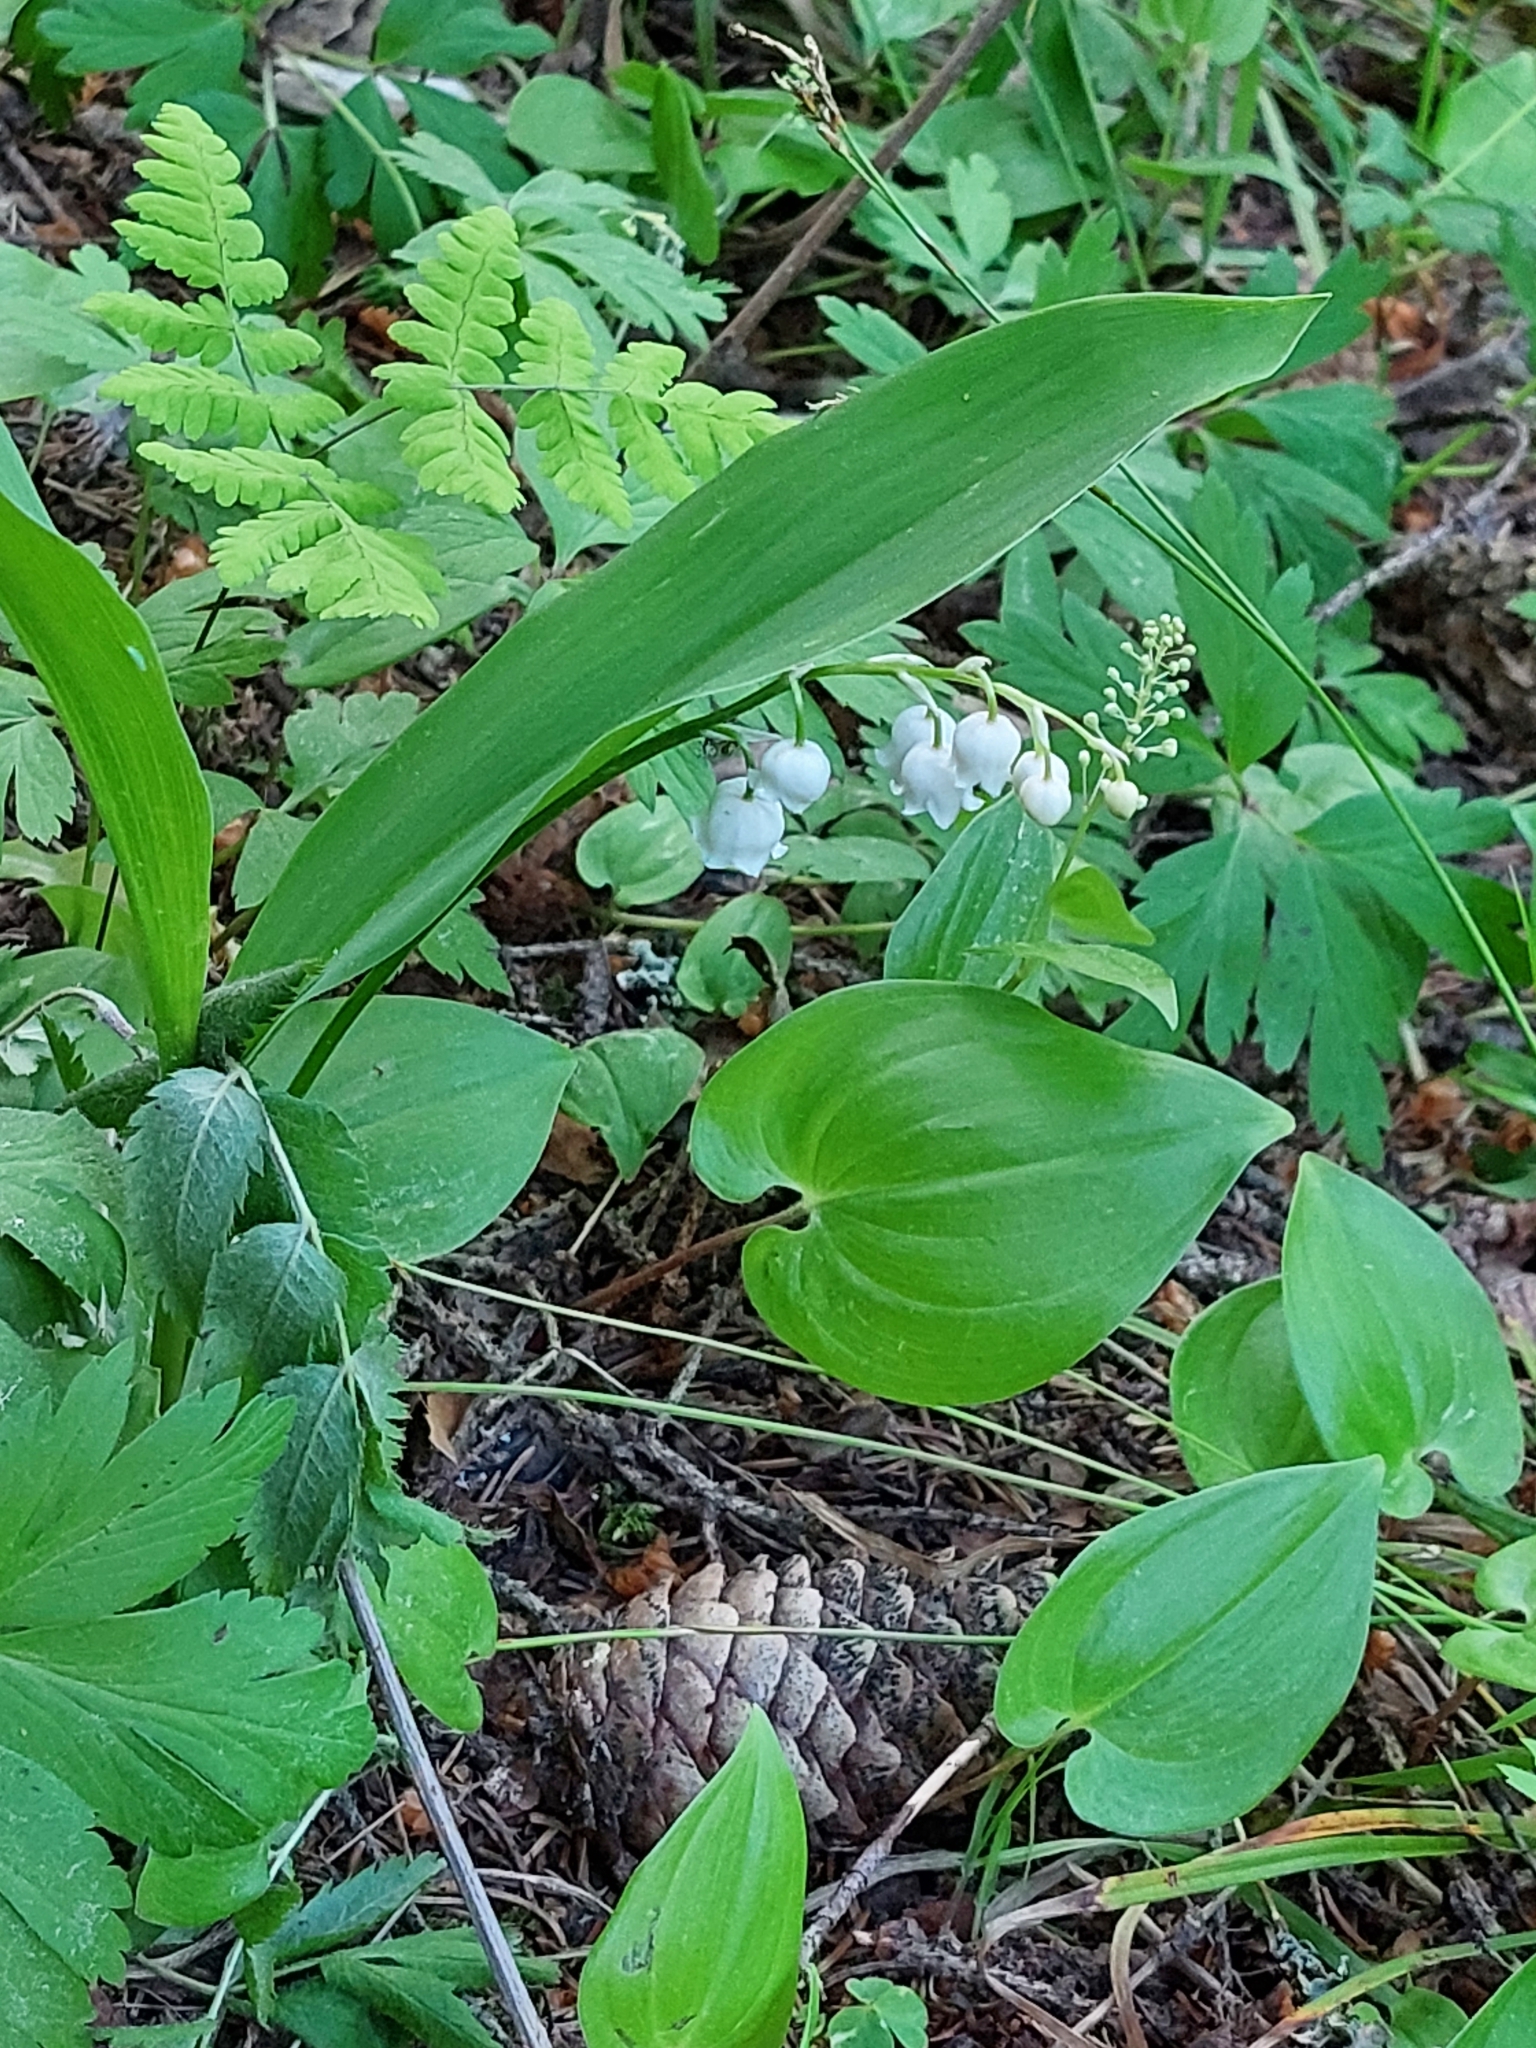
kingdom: Plantae
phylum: Tracheophyta
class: Liliopsida
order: Asparagales
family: Asparagaceae
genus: Convallaria
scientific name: Convallaria majalis
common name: Lily-of-the-valley
